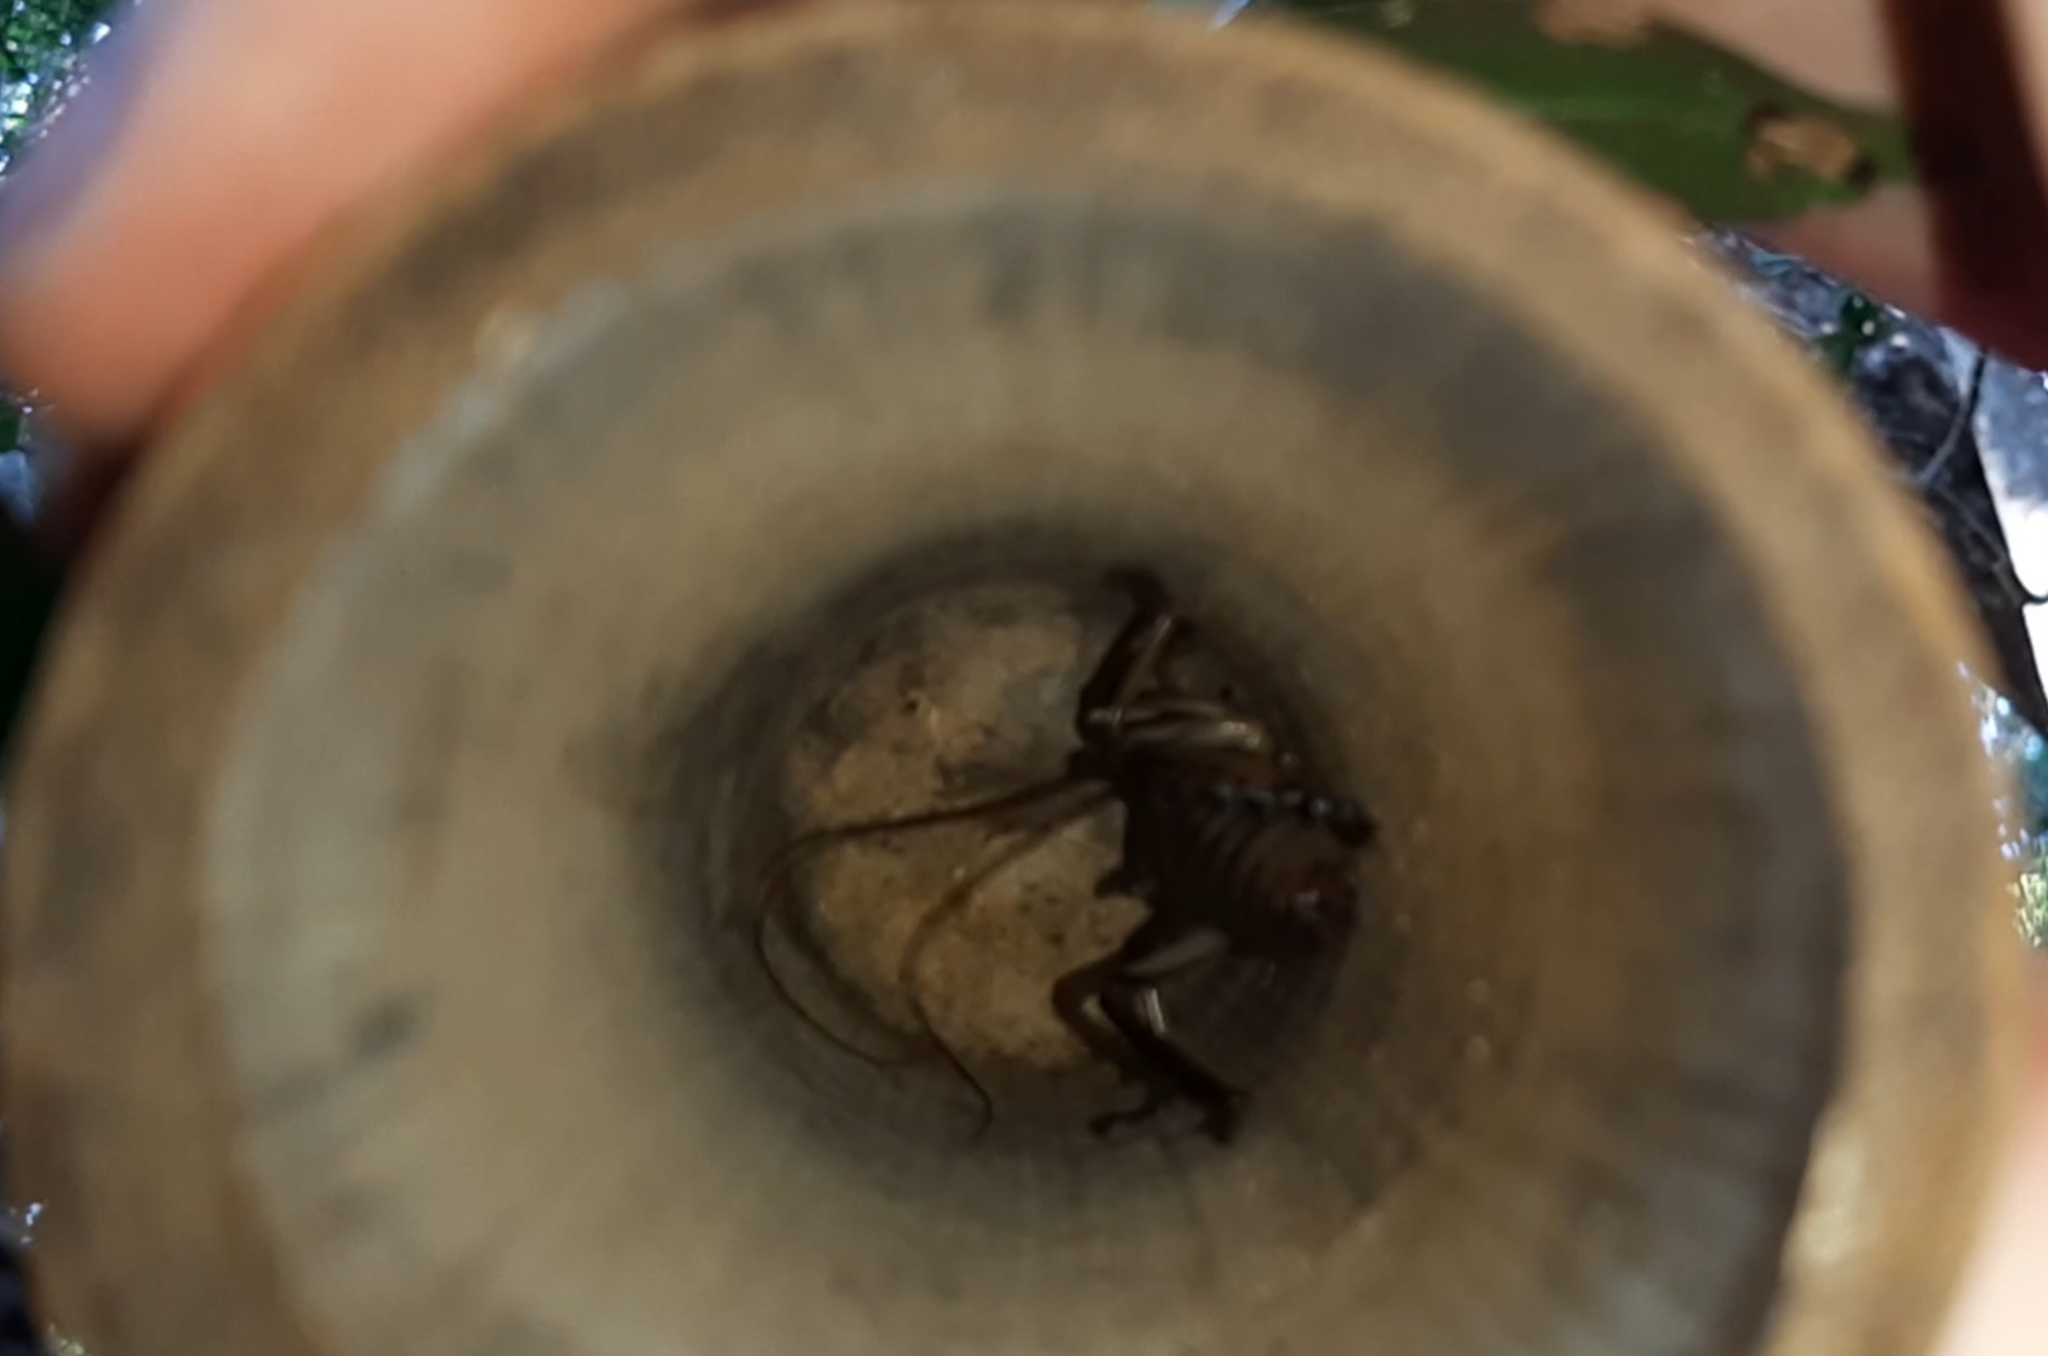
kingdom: Animalia
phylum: Arthropoda
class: Insecta
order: Orthoptera
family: Anostostomatidae
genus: Hemideina
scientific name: Hemideina thoracica
